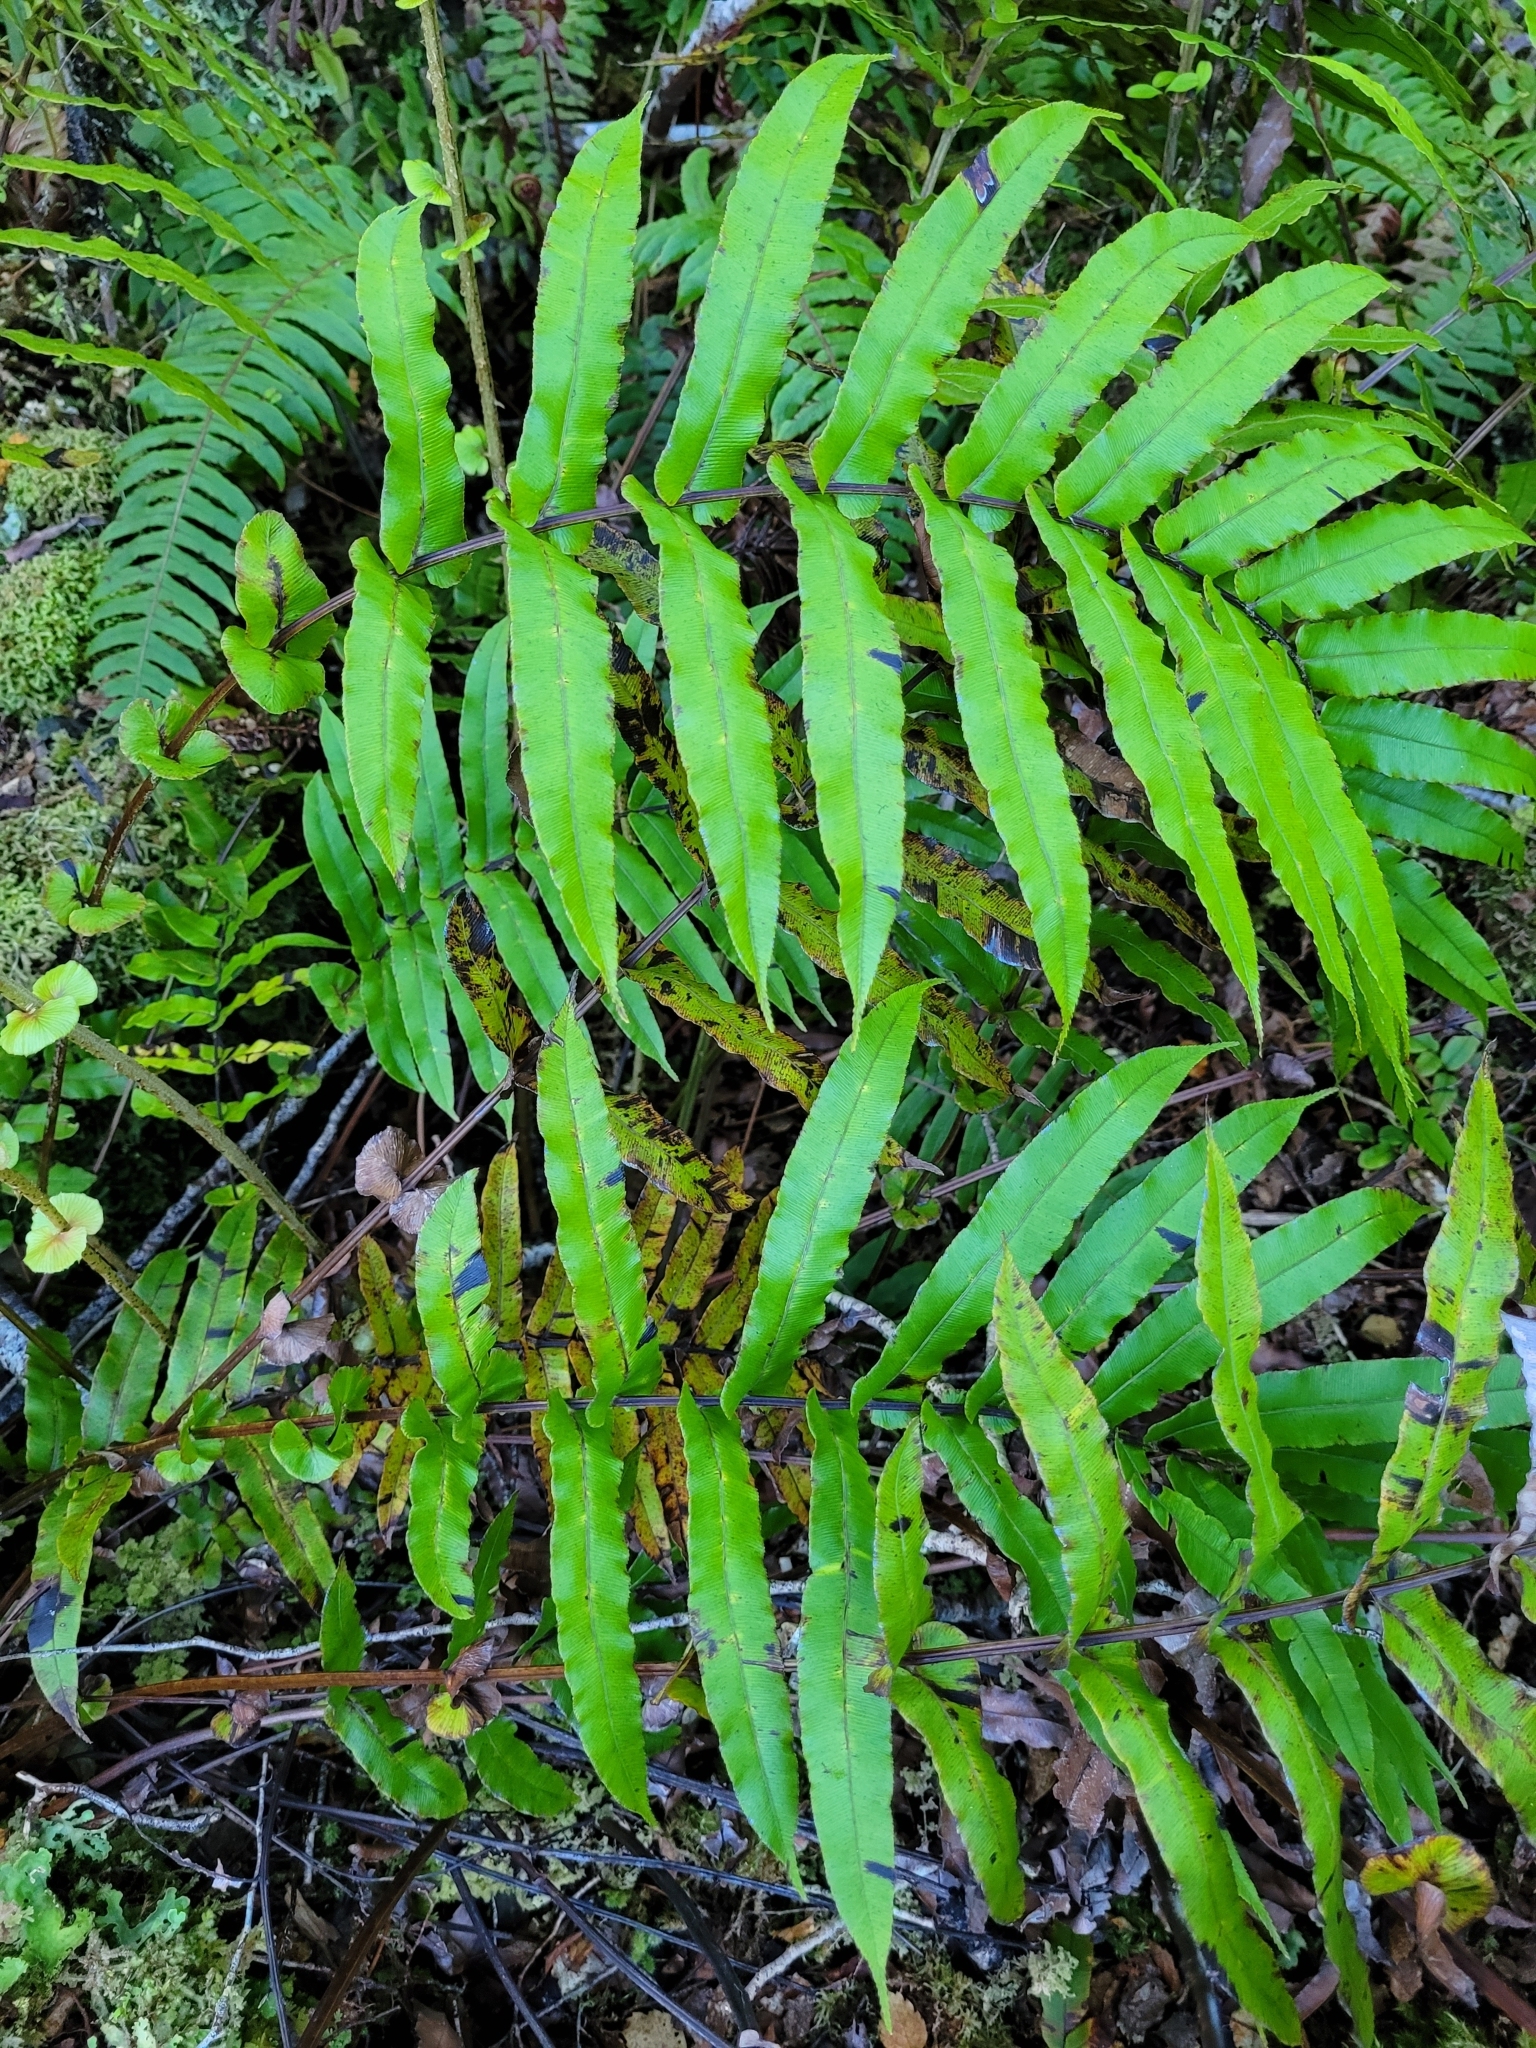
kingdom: Plantae
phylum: Tracheophyta
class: Polypodiopsida
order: Polypodiales
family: Blechnaceae
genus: Parablechnum
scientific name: Parablechnum novae-zelandiae
